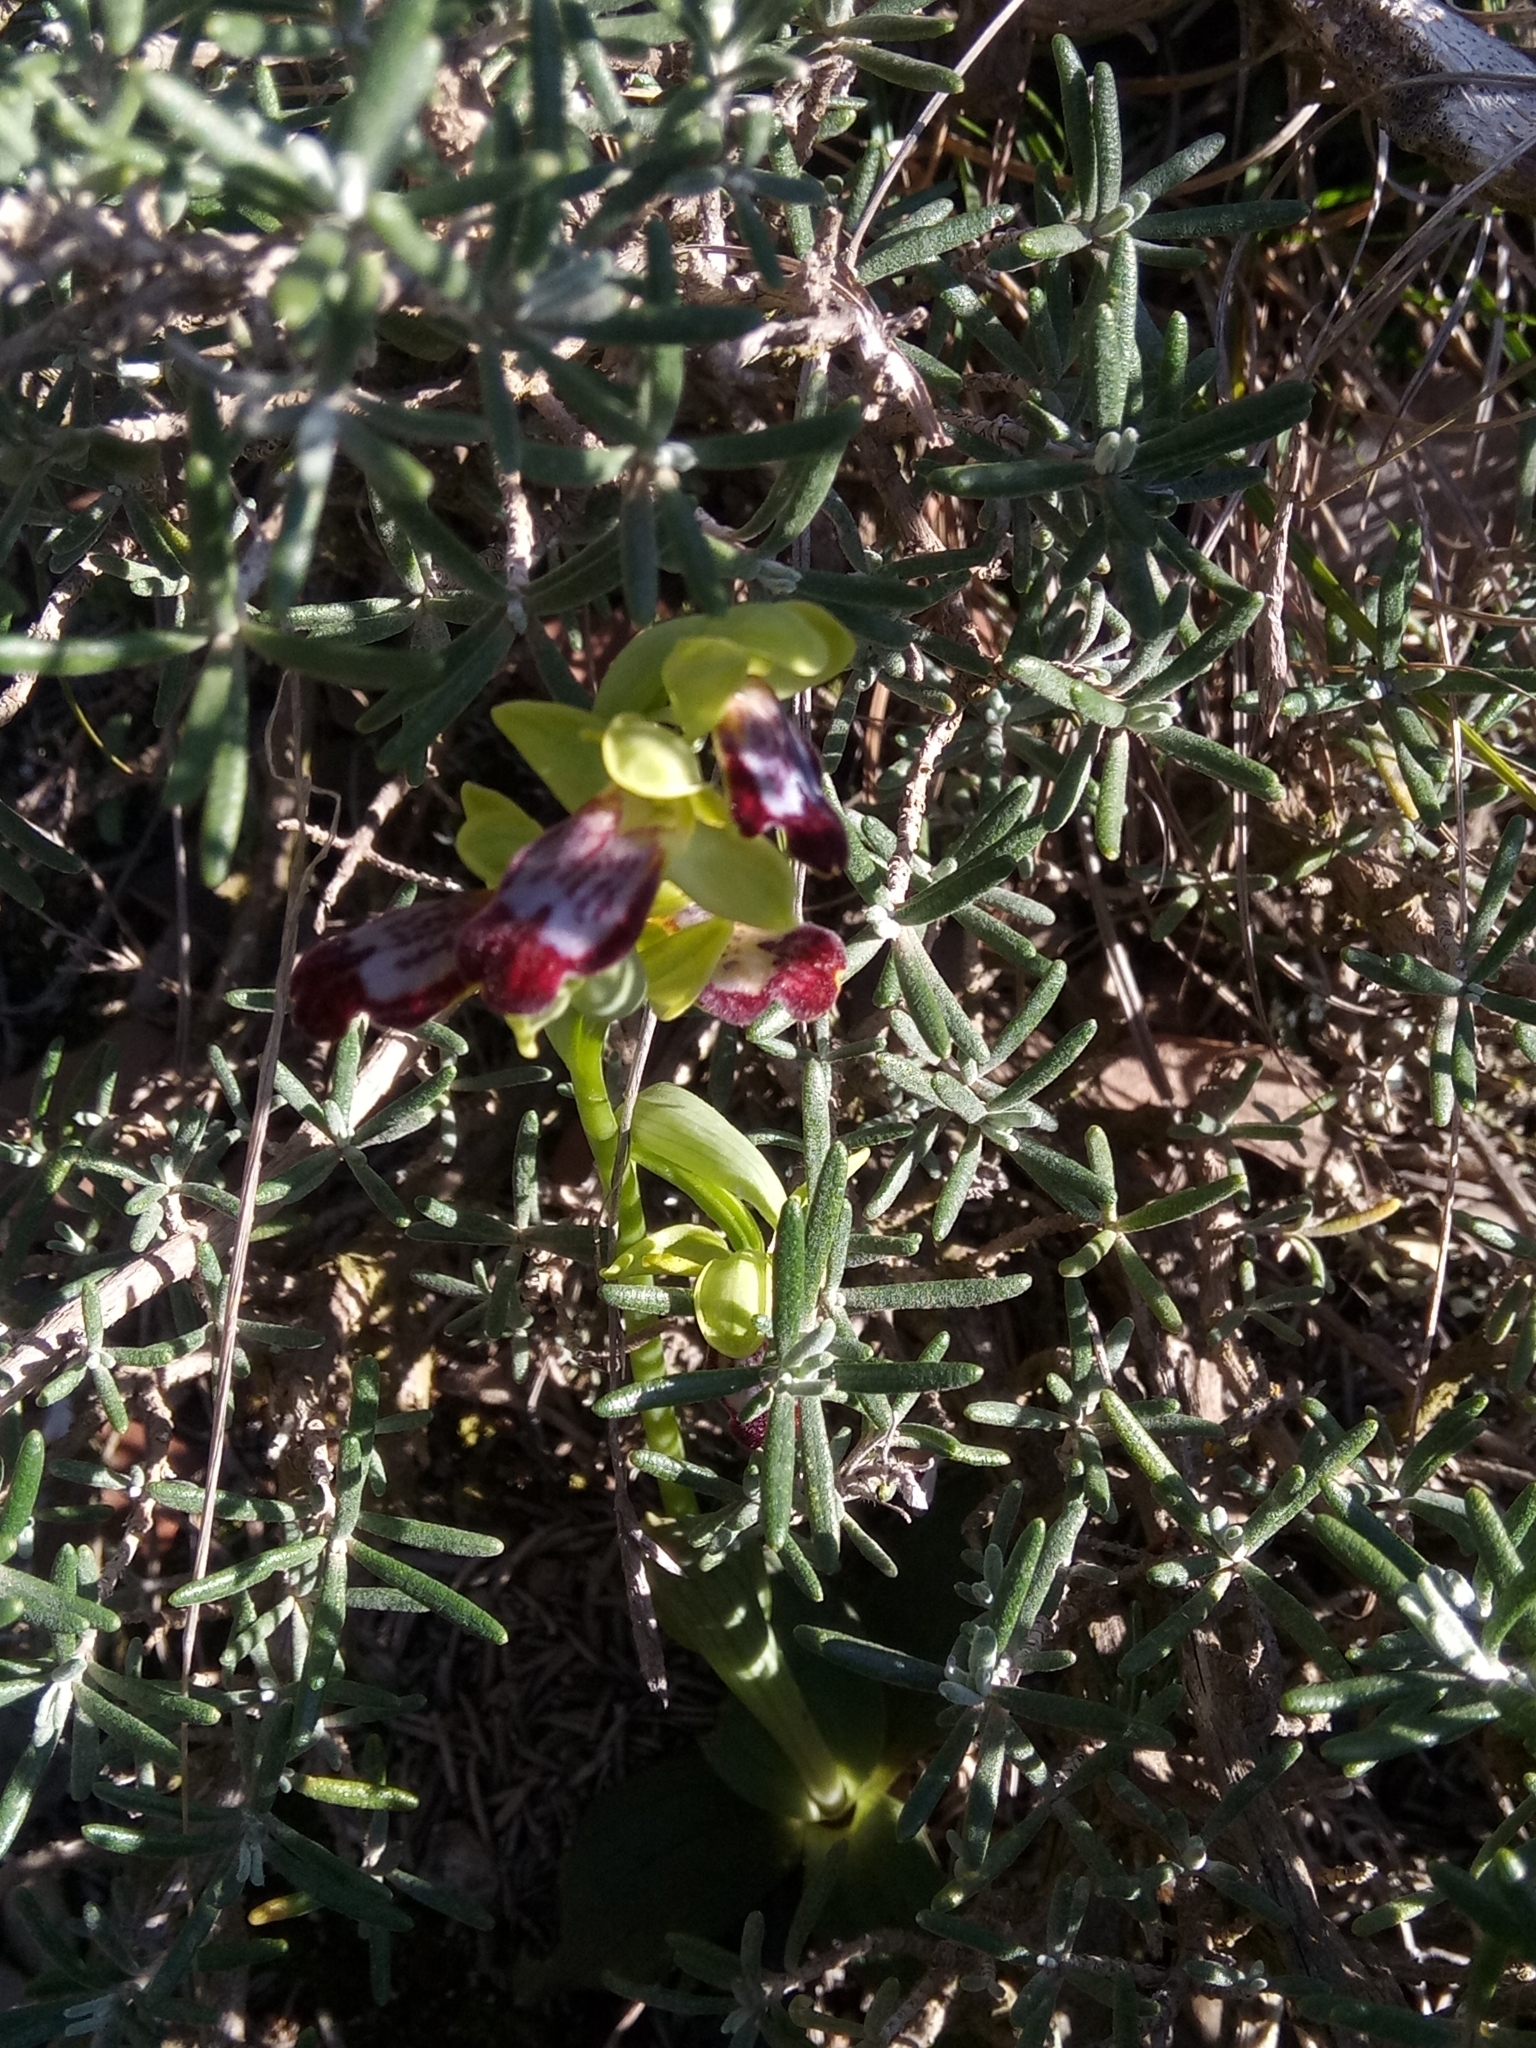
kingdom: Plantae
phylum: Tracheophyta
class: Liliopsida
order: Asparagales
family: Orchidaceae
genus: Ophrys
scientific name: Ophrys fusca
